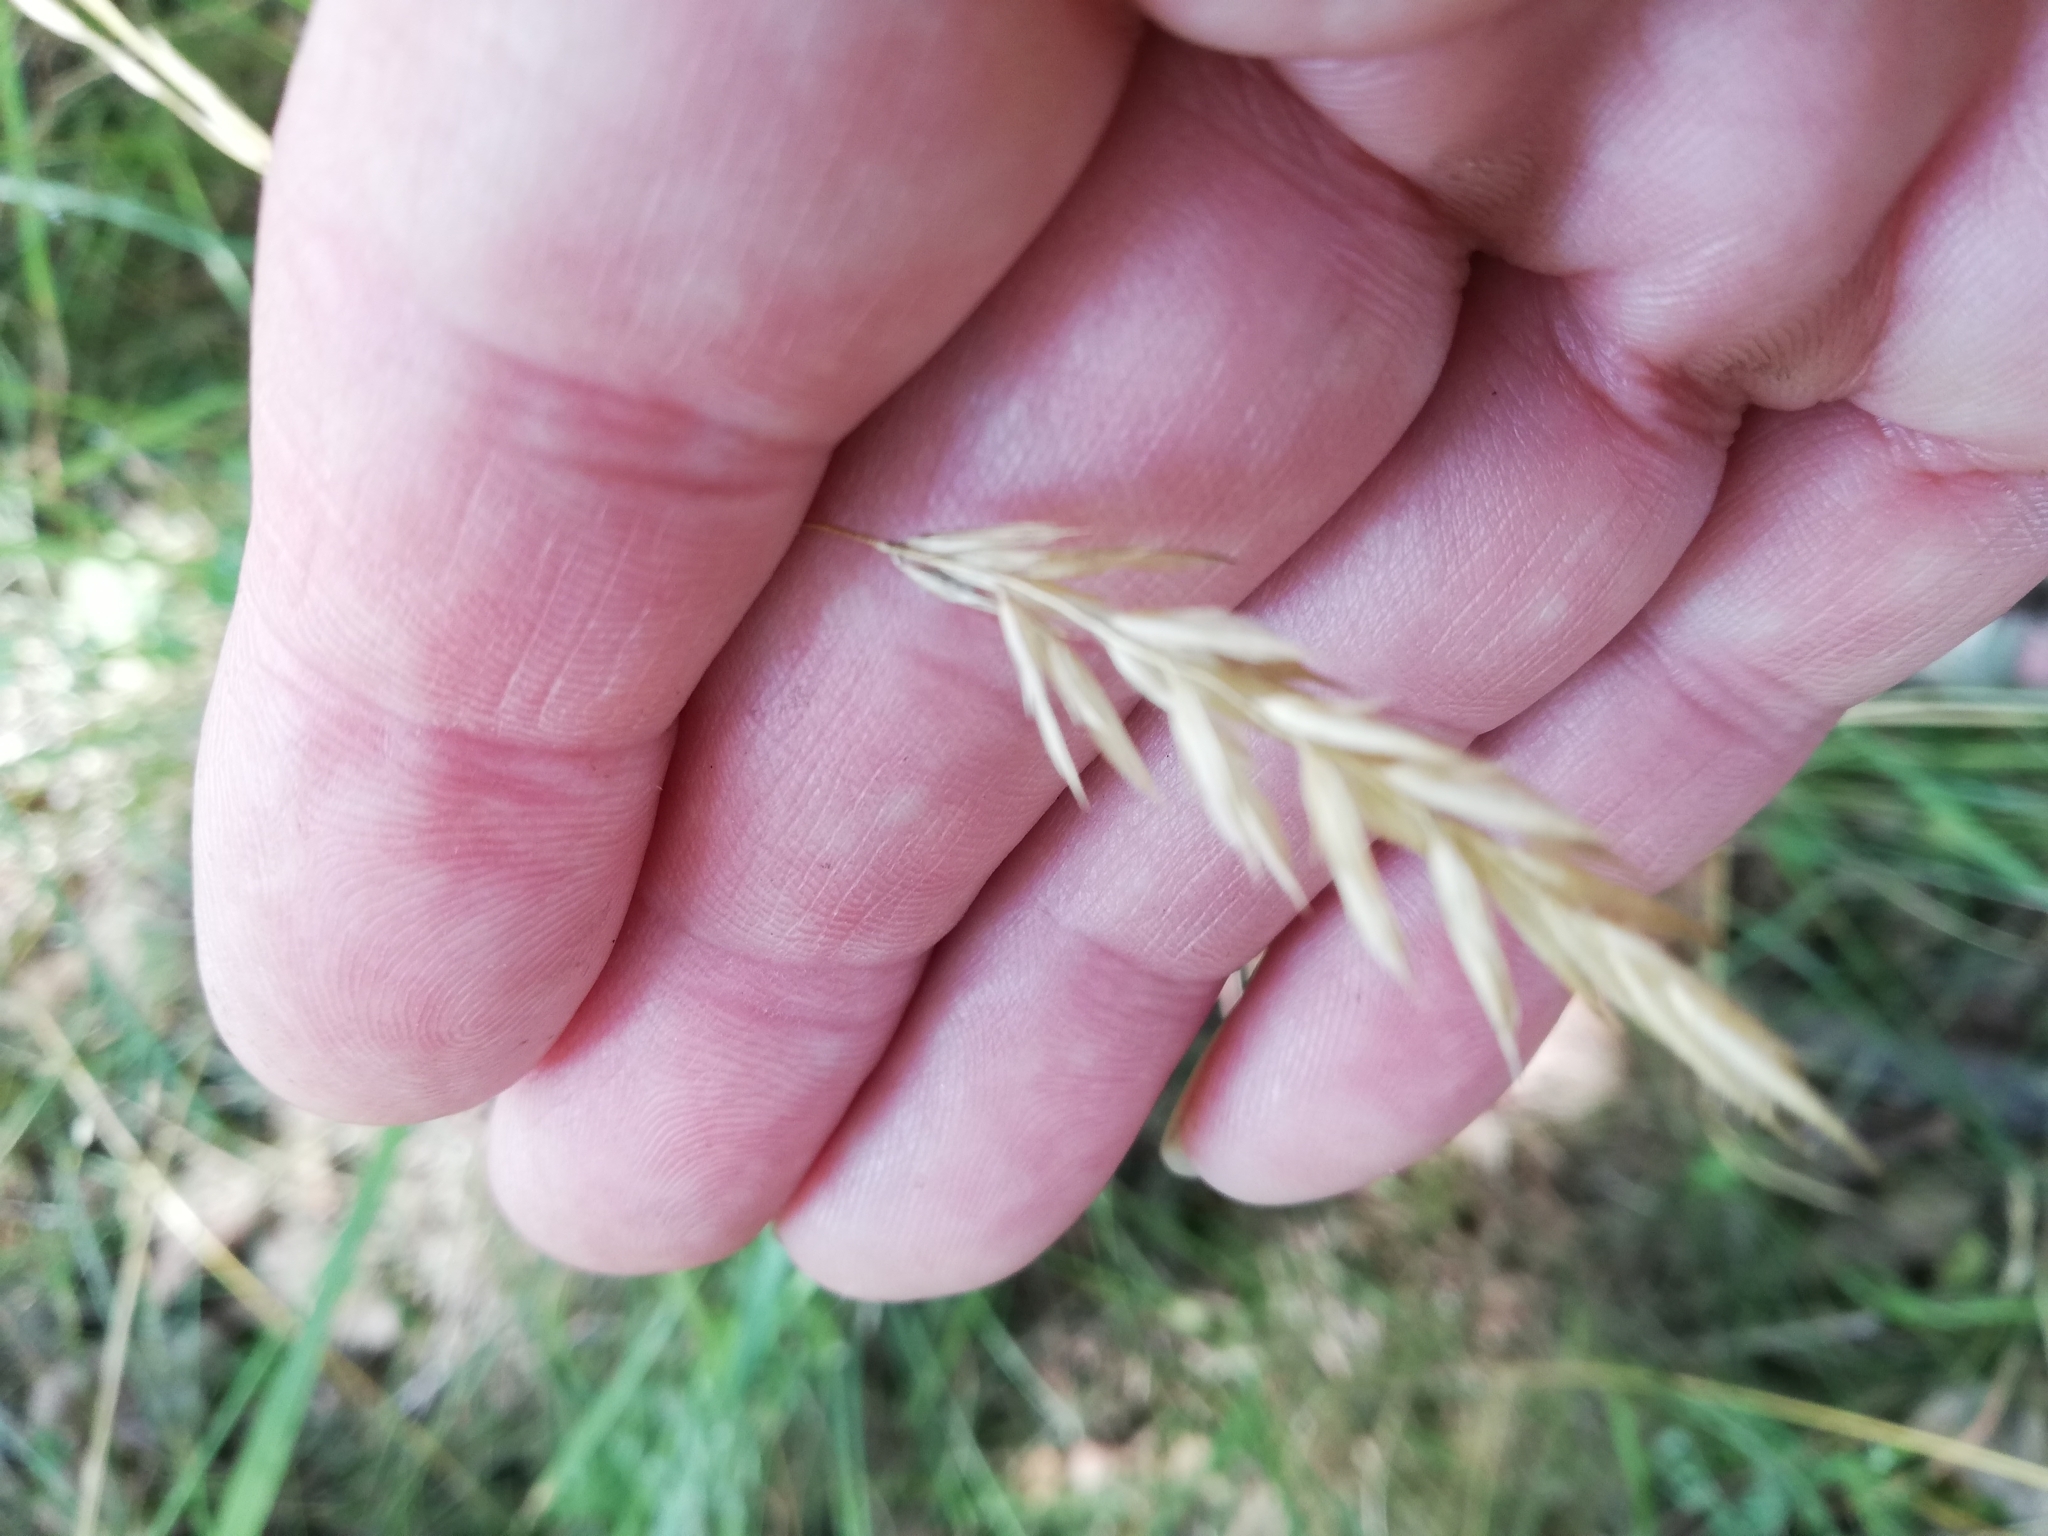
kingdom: Plantae
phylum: Tracheophyta
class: Liliopsida
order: Poales
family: Poaceae
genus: Anthoxanthum
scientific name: Anthoxanthum odoratum
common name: Sweet vernalgrass
